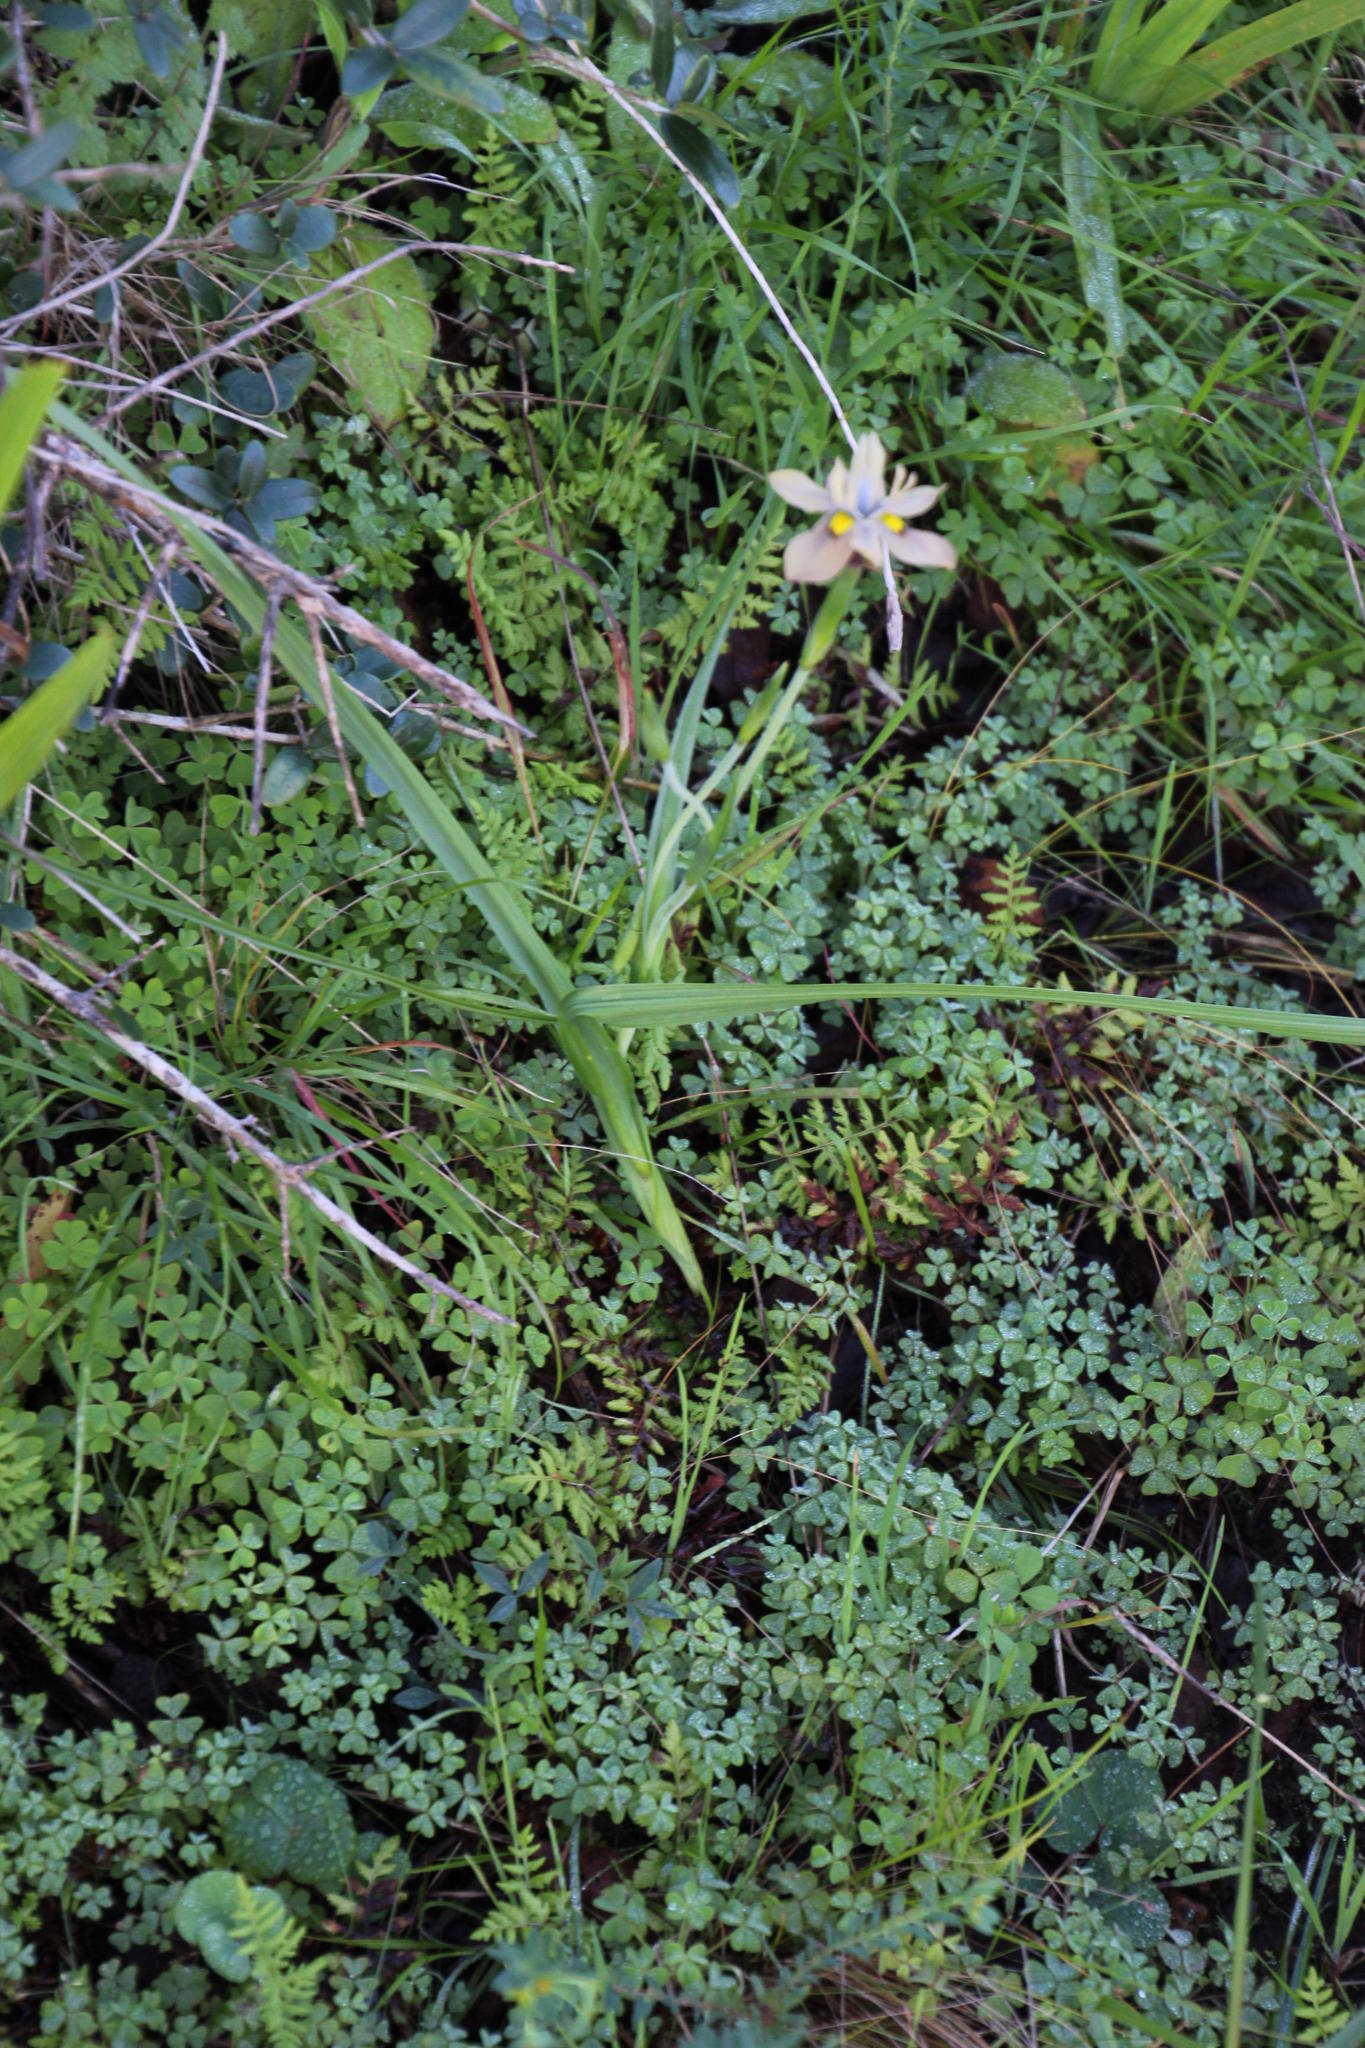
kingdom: Plantae
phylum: Tracheophyta
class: Liliopsida
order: Asparagales
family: Iridaceae
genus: Moraea
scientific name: Moraea vegeta
